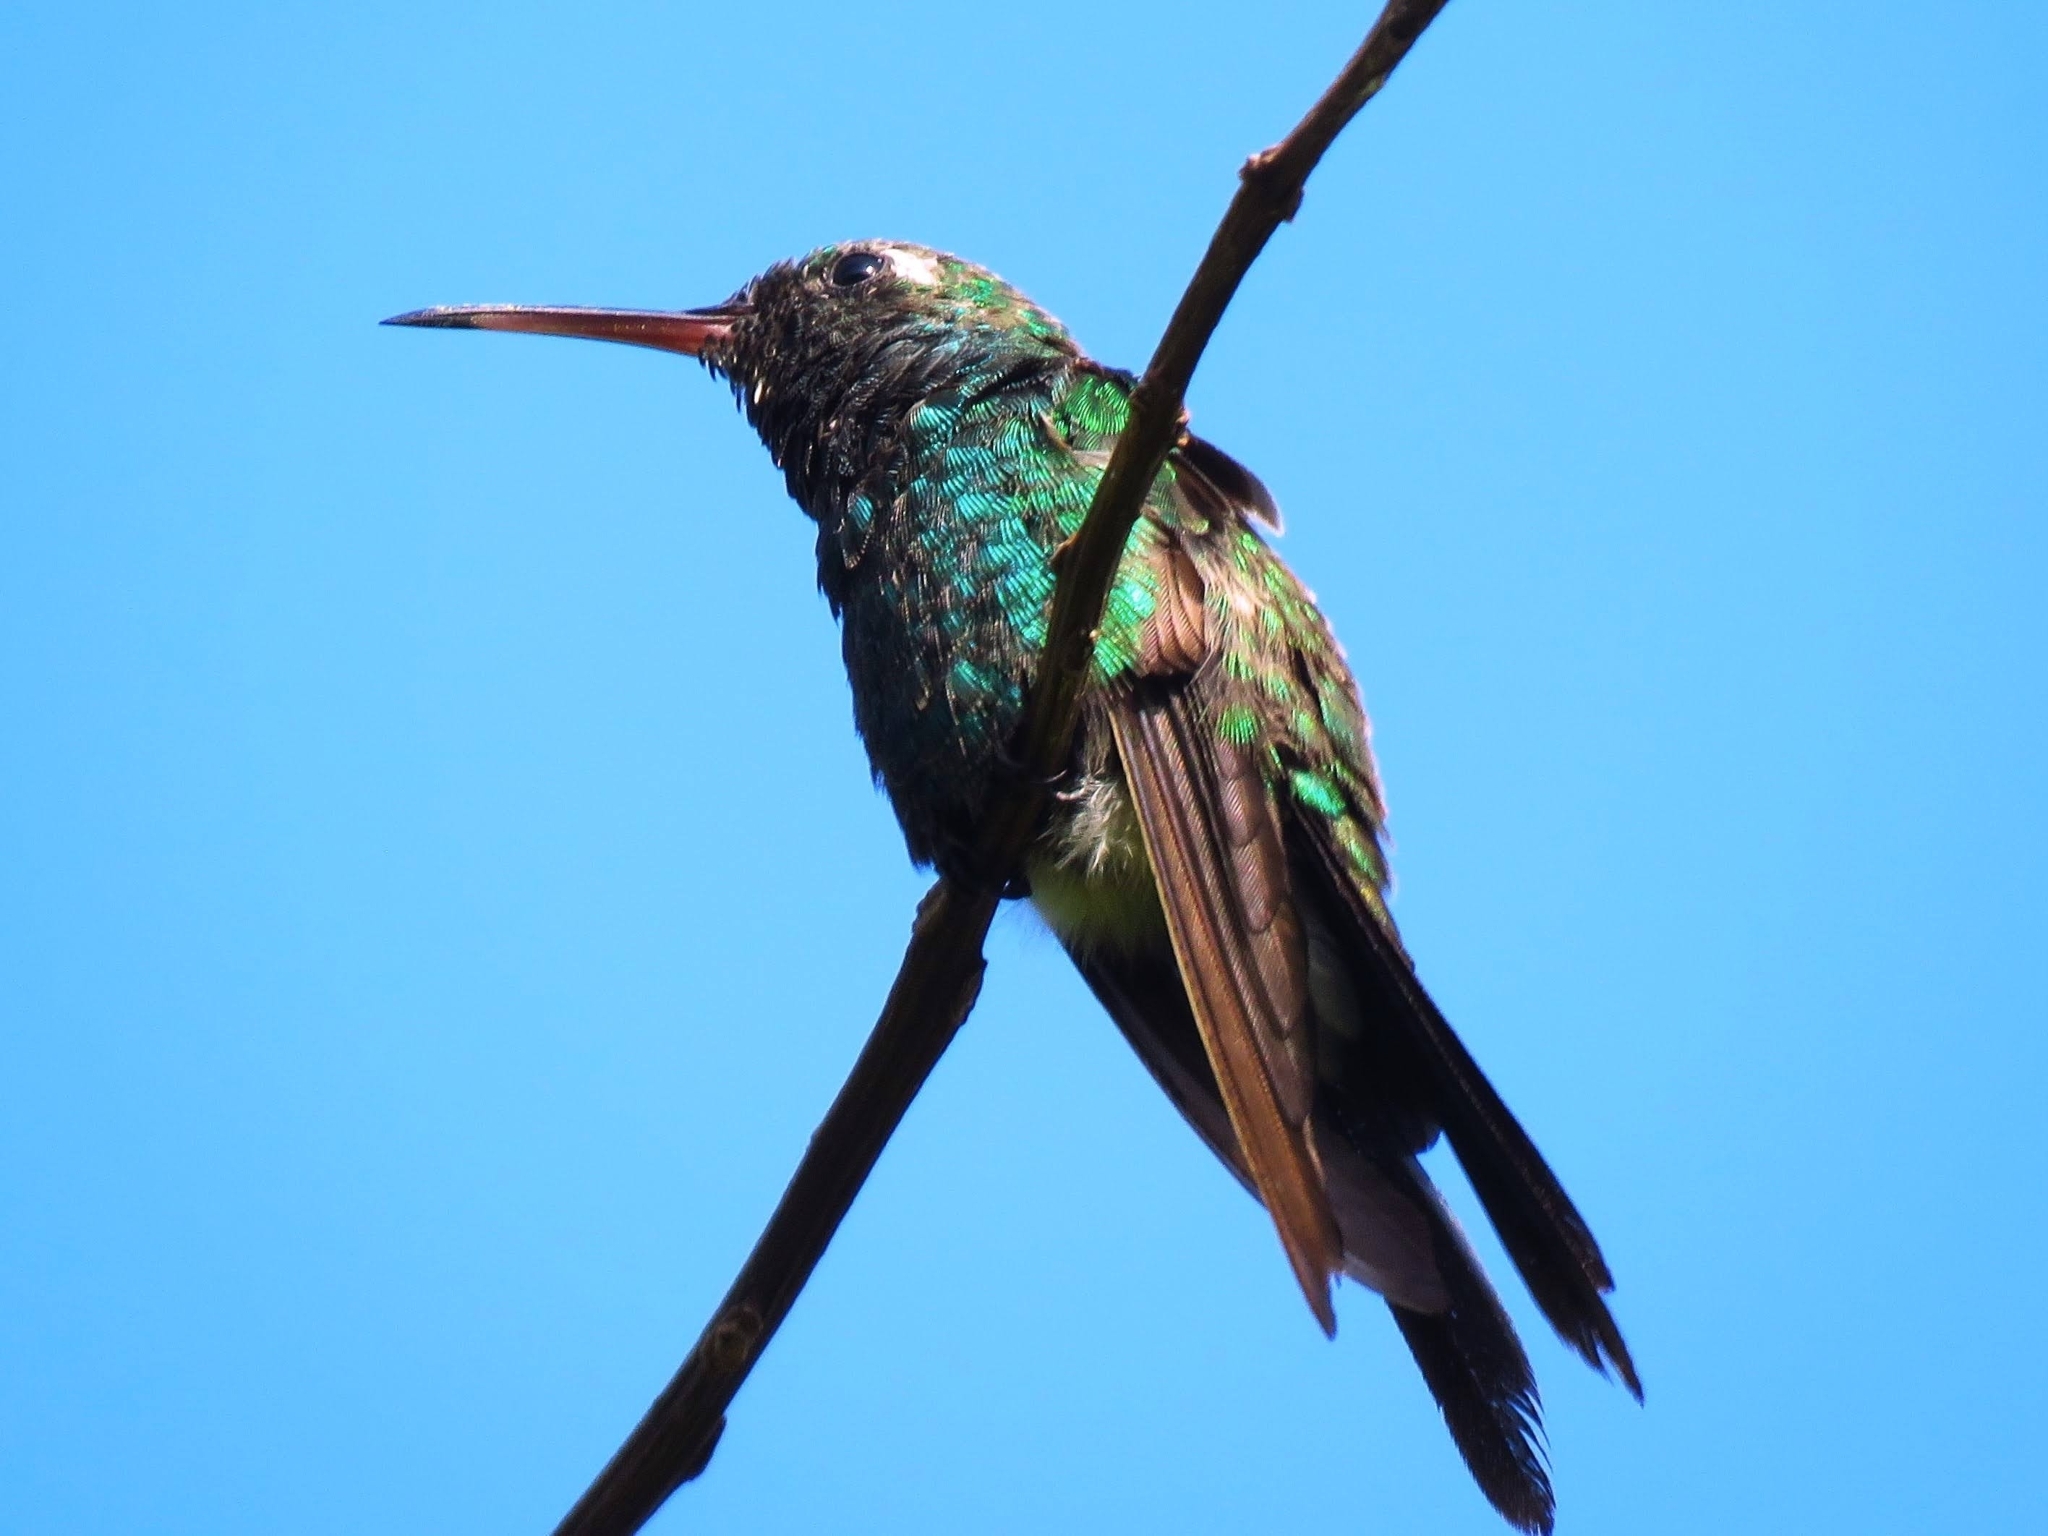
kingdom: Animalia
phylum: Chordata
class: Aves
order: Apodiformes
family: Trochilidae
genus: Riccordia
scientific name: Riccordia ricordii
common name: Cuban emerald
